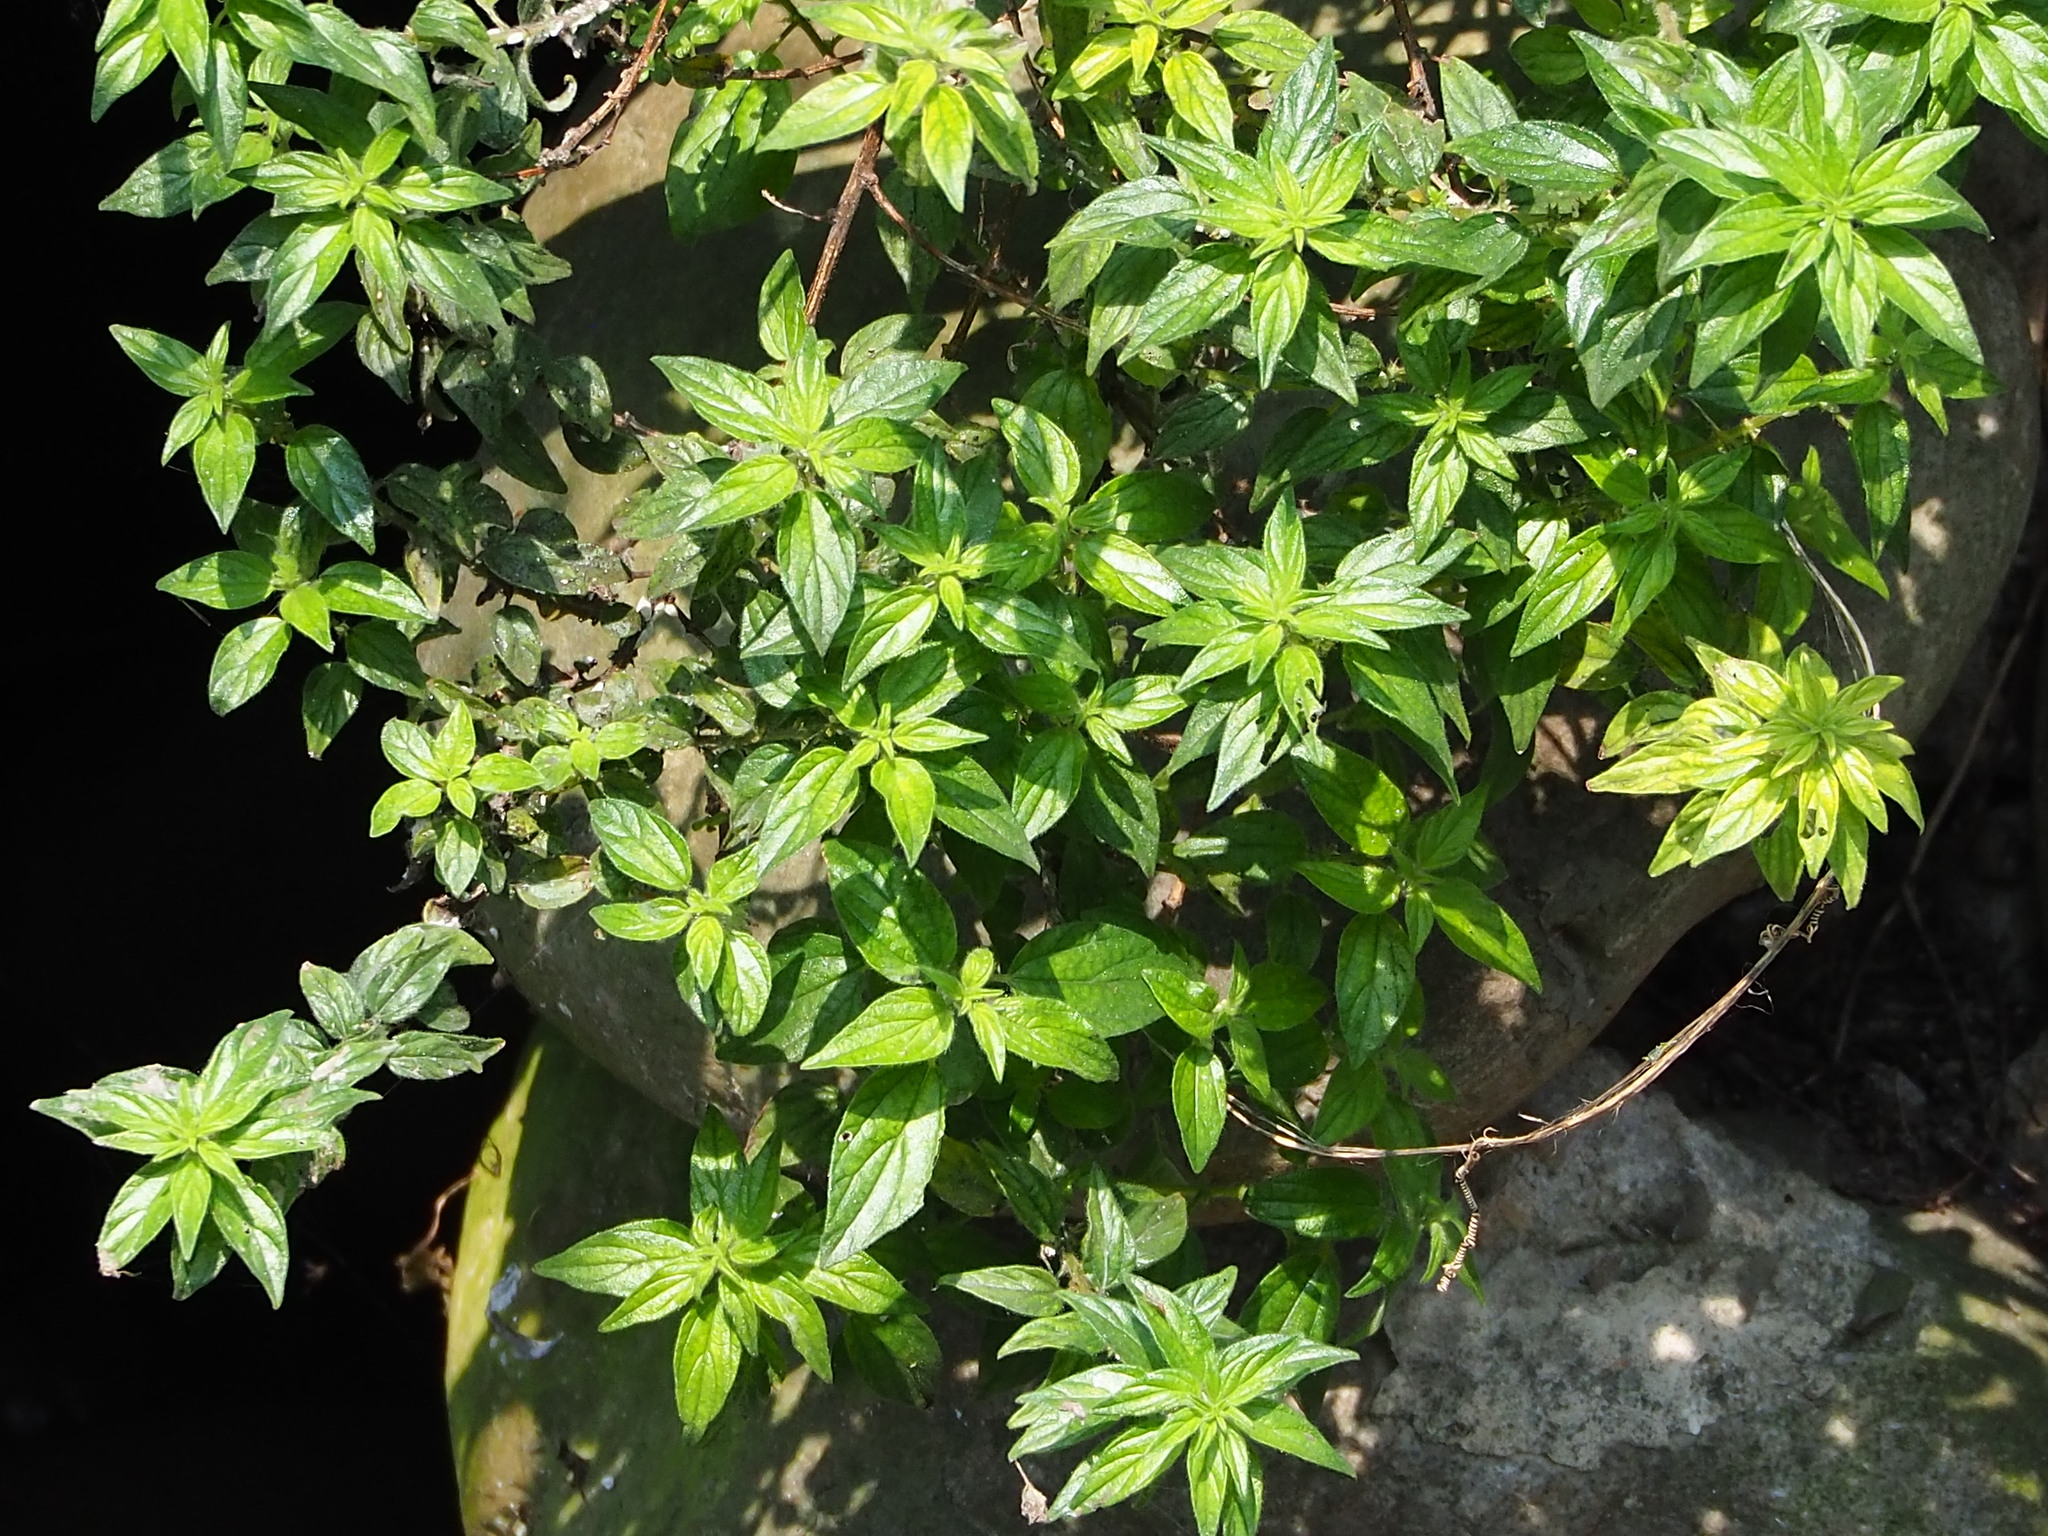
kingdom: Plantae
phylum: Tracheophyta
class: Magnoliopsida
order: Rosales
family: Urticaceae
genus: Pouzolzia
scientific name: Pouzolzia zeylanica
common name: Graceful pouzolzsbush
